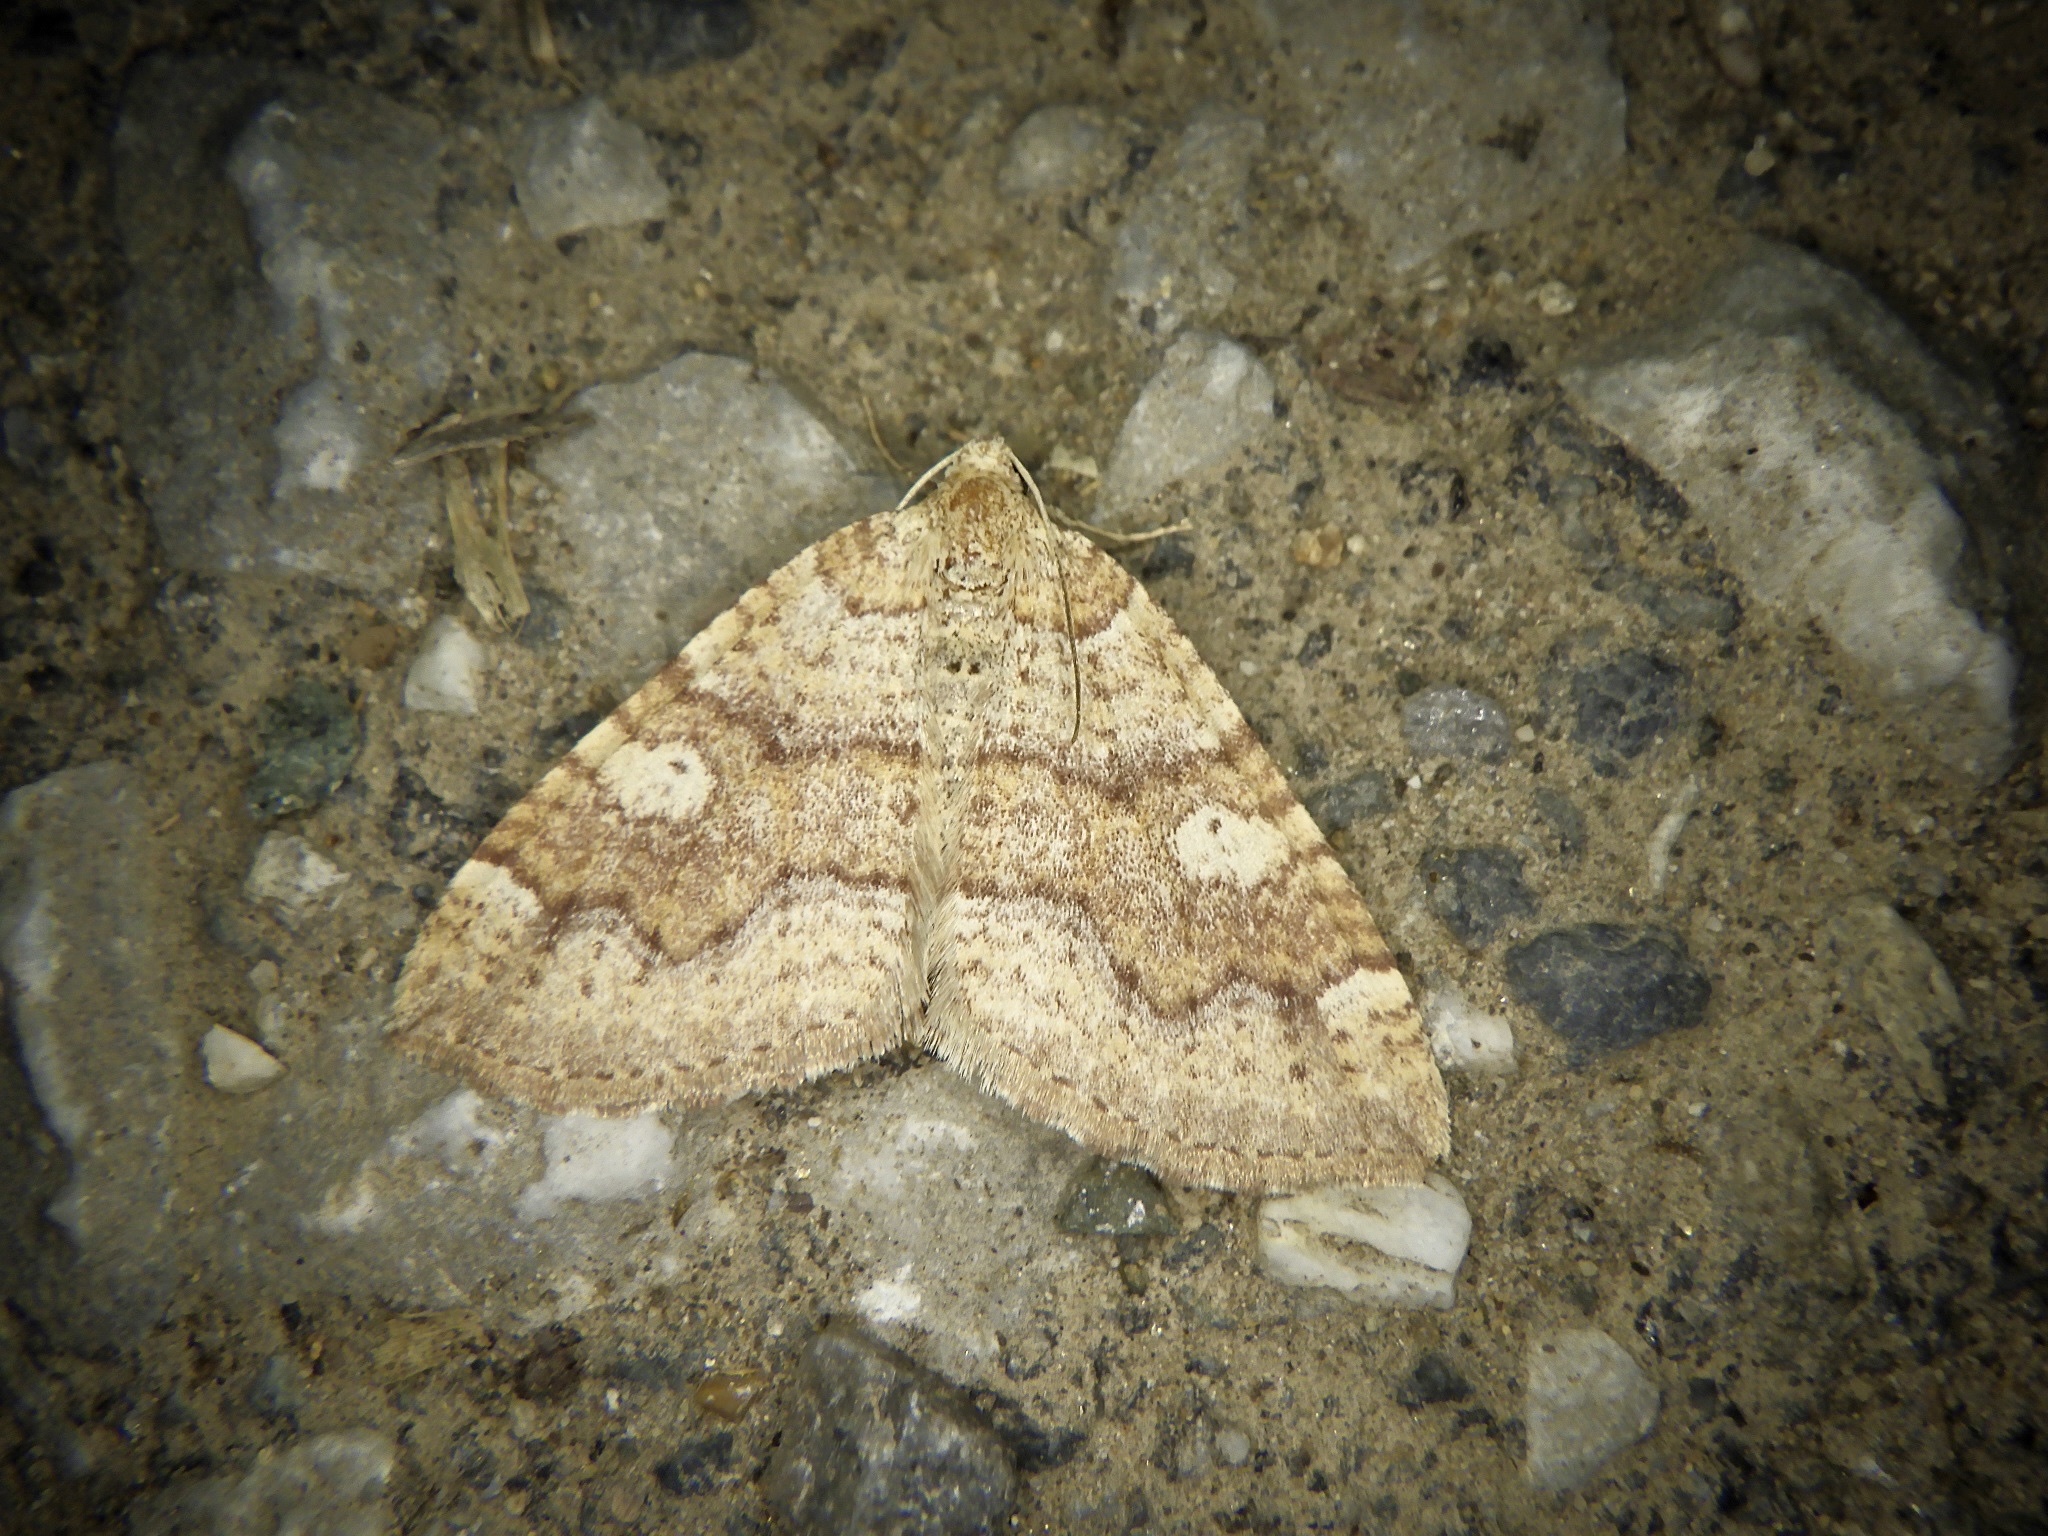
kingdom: Animalia
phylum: Arthropoda
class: Insecta
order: Lepidoptera
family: Geometridae
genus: Idiotephria
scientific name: Idiotephria evanescens
